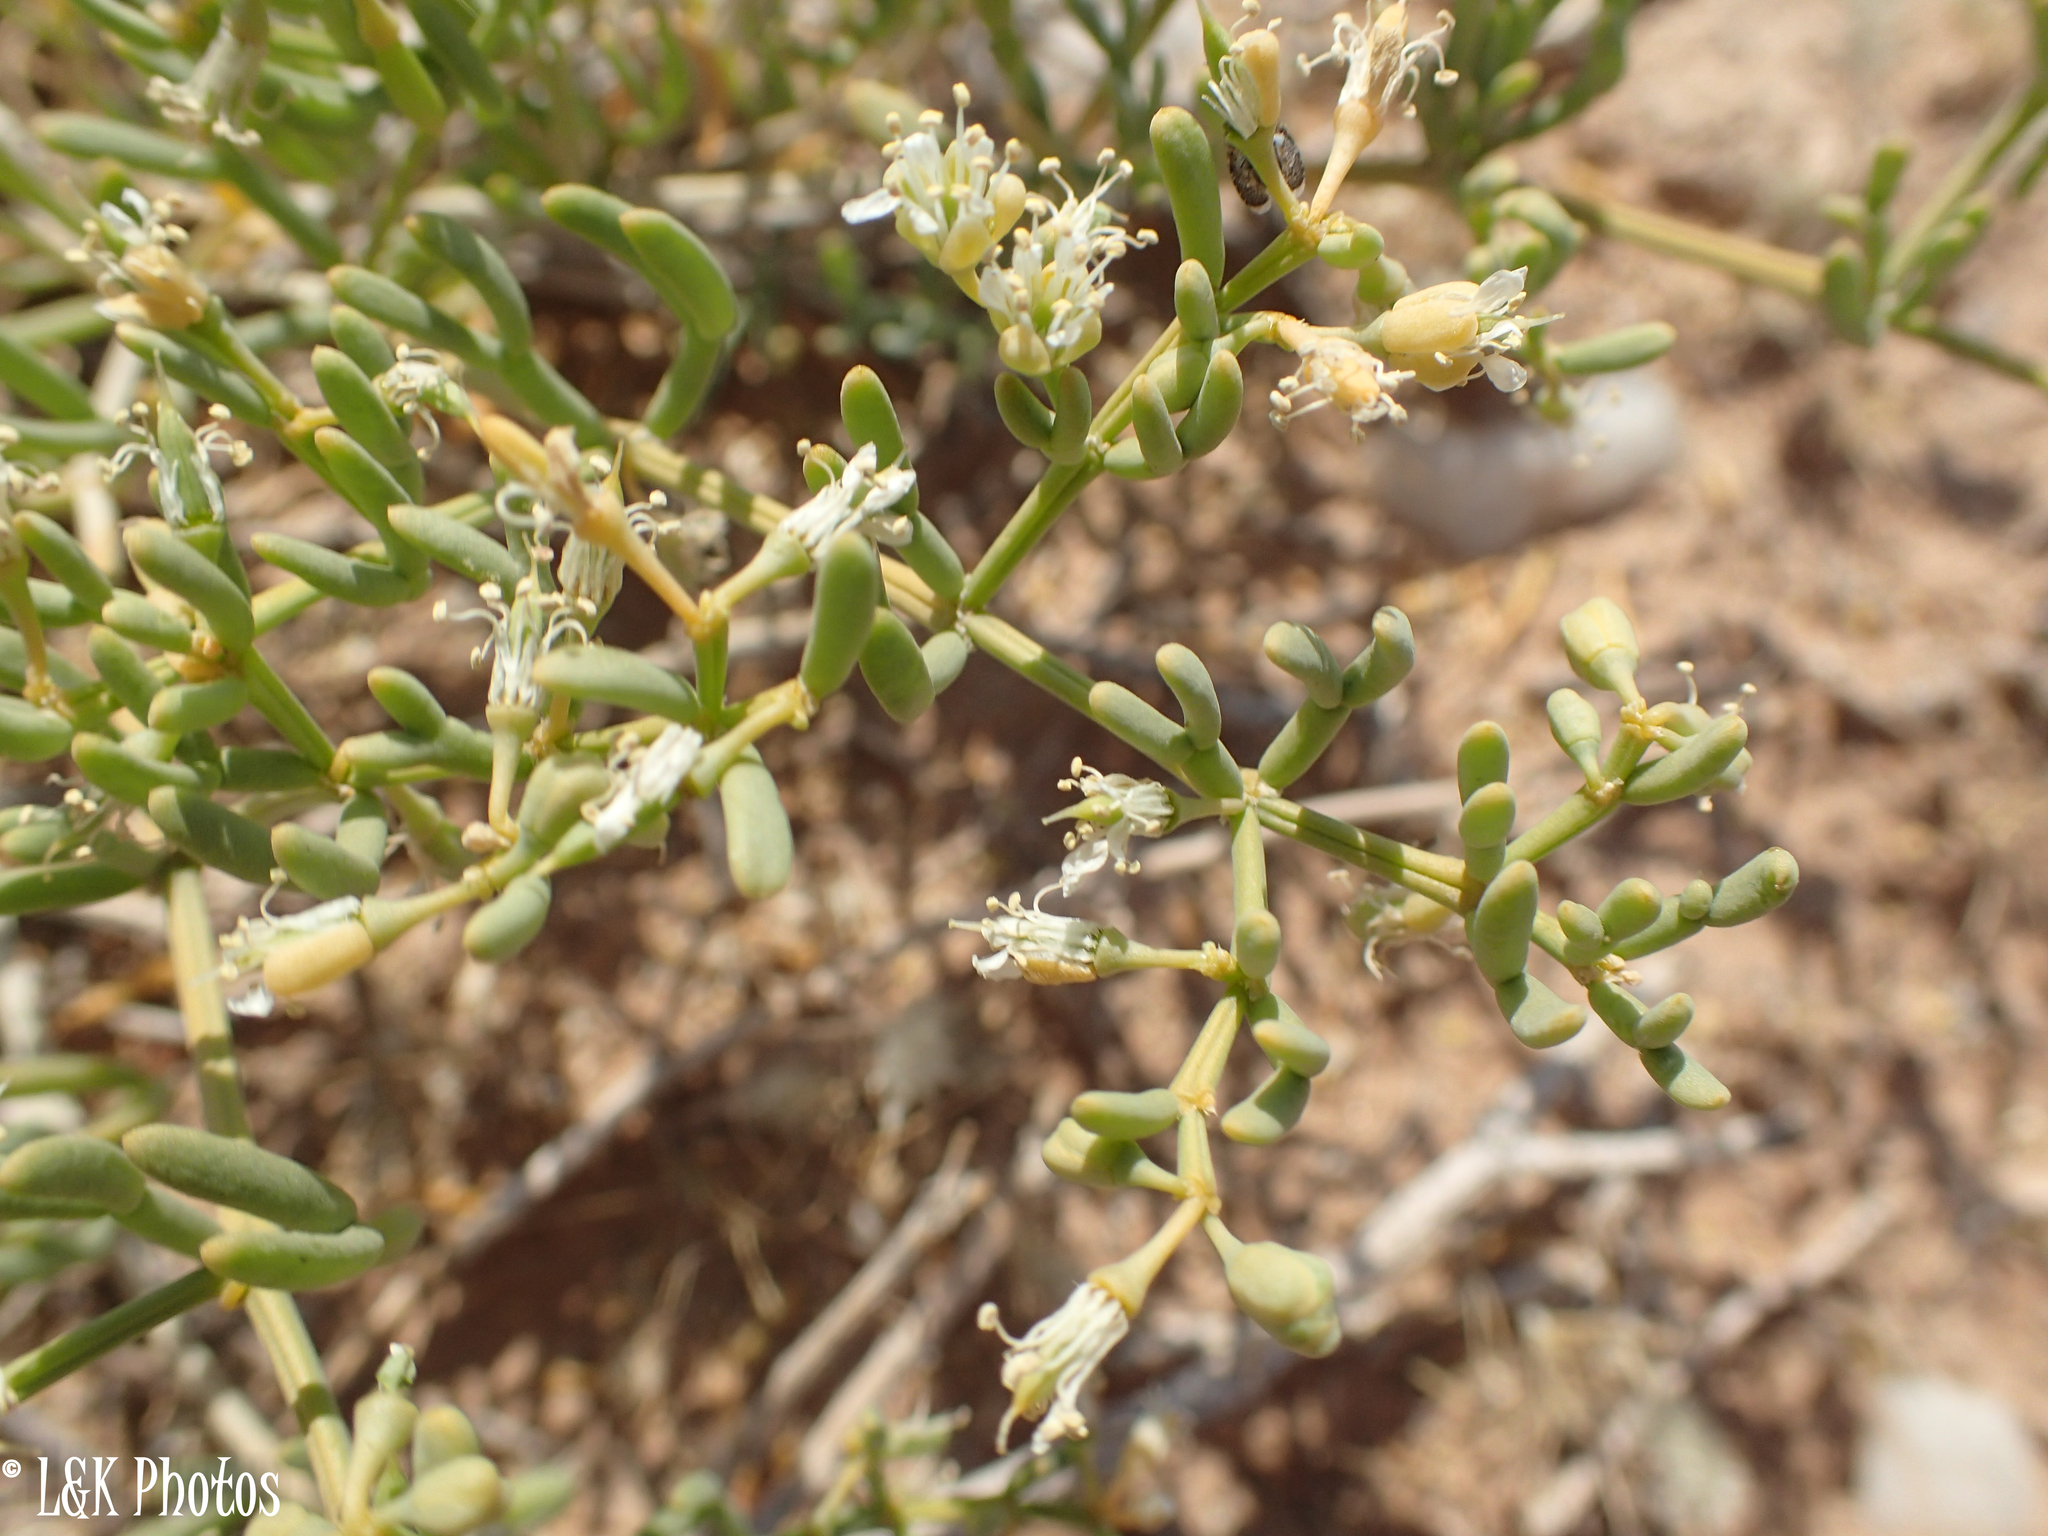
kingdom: Plantae
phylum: Tracheophyta
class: Magnoliopsida
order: Zygophyllales
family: Zygophyllaceae
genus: Tetraena
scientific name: Tetraena cylindrifolia
